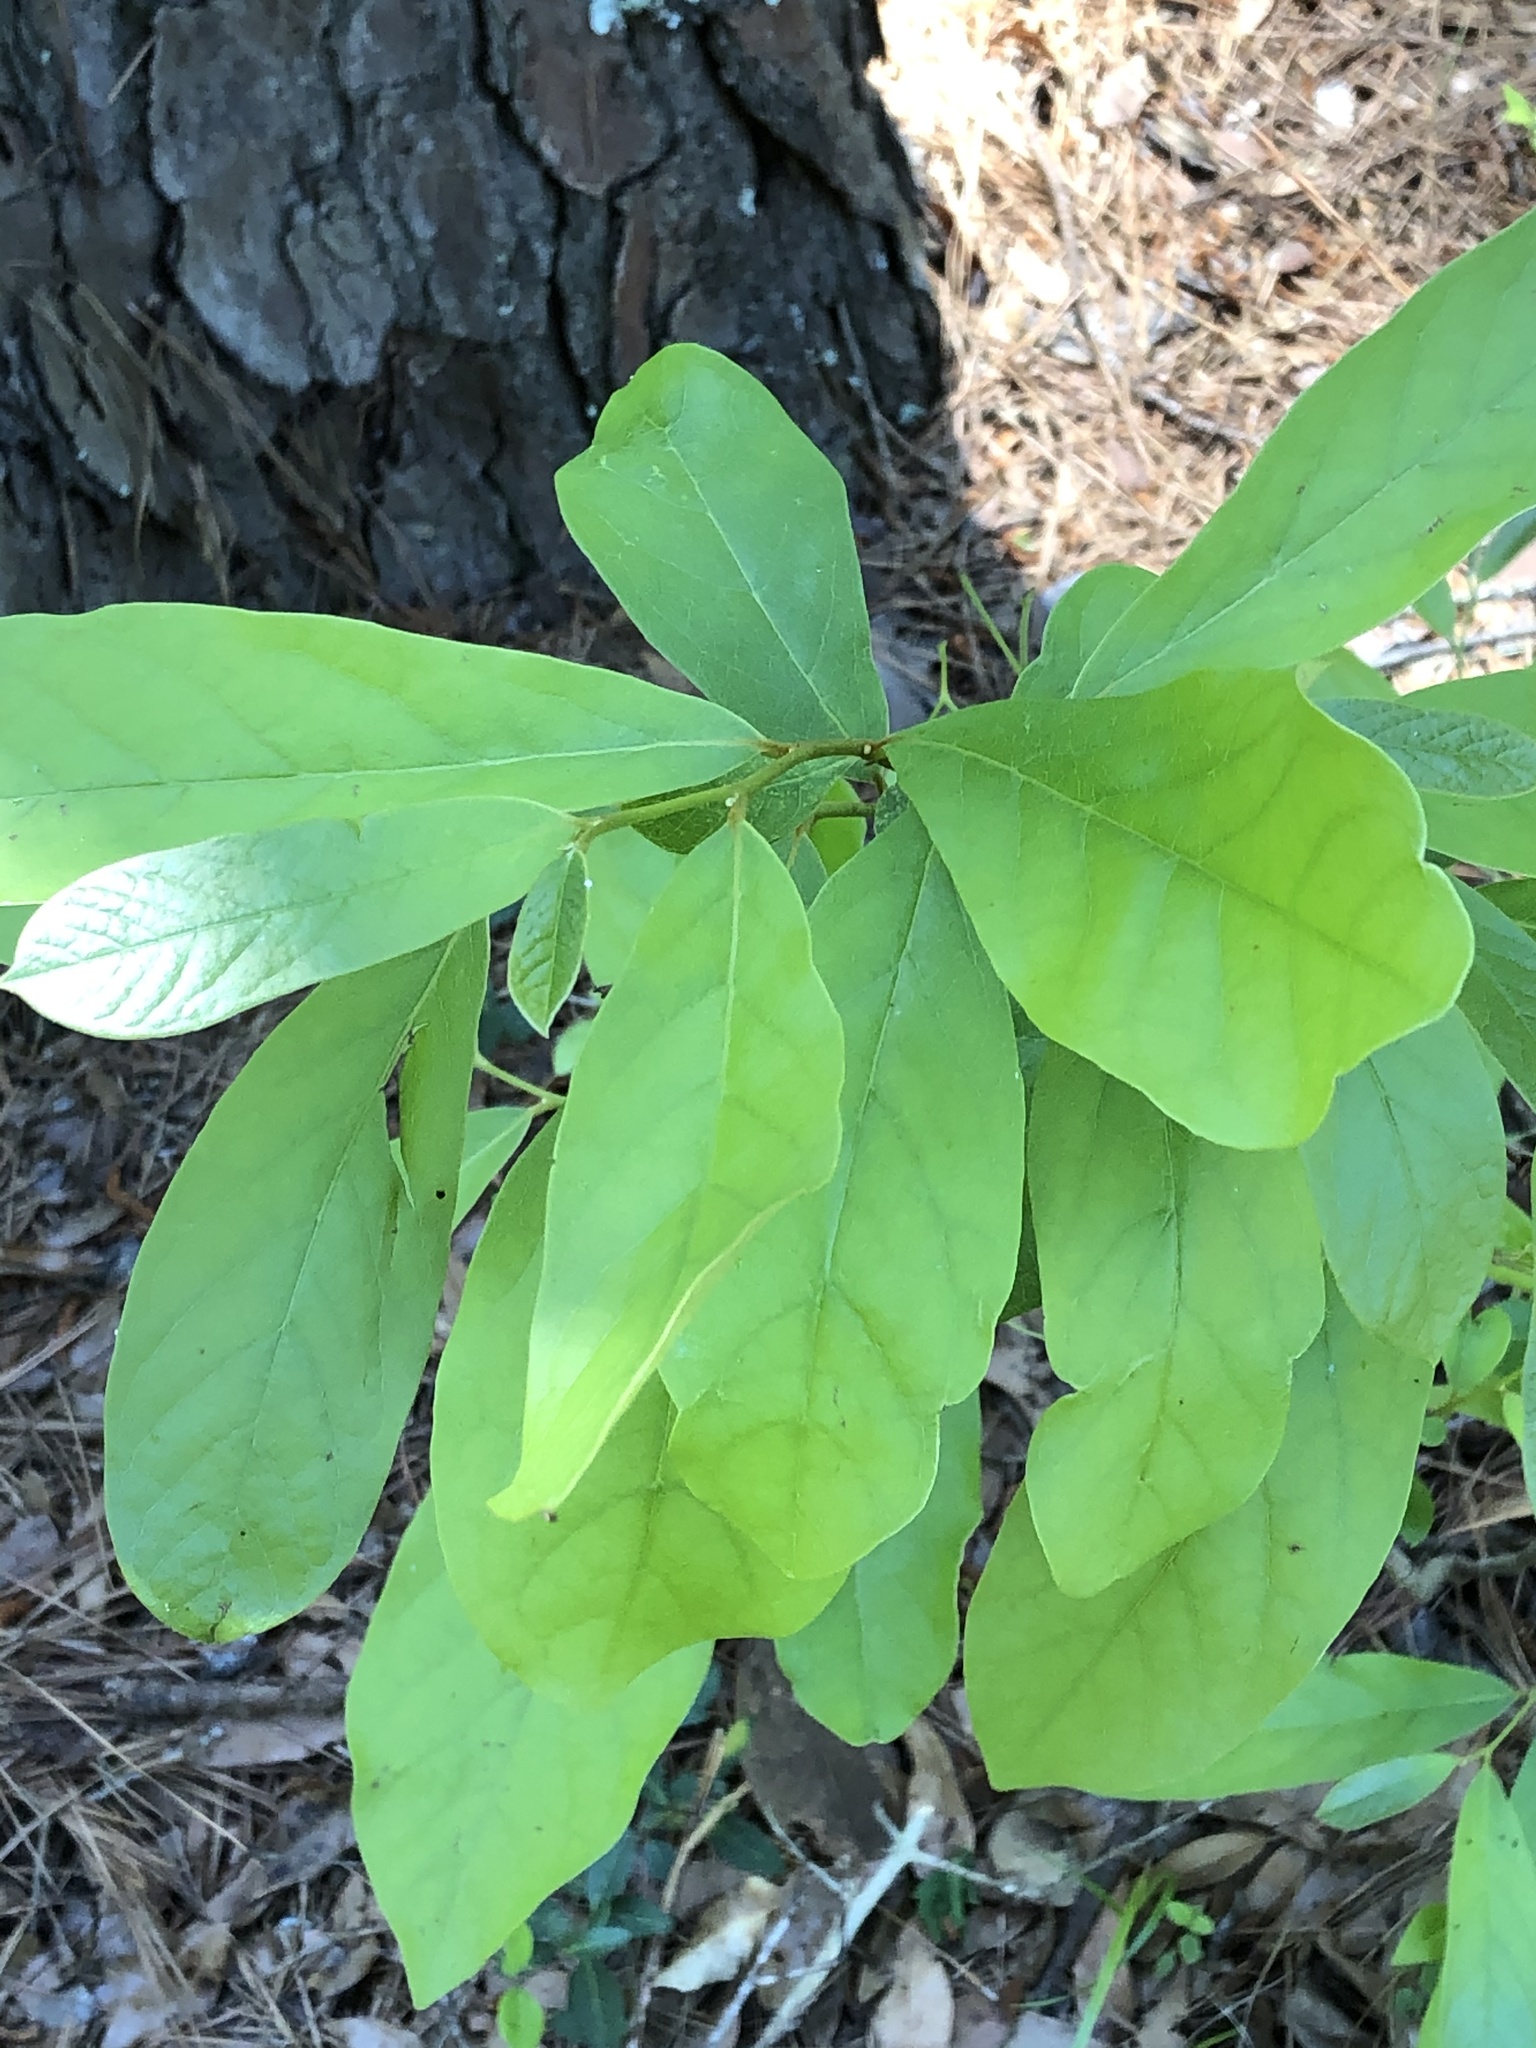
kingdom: Plantae
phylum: Tracheophyta
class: Magnoliopsida
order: Magnoliales
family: Annonaceae
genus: Asimina
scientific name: Asimina parviflora
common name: Dwarf pawpaw
